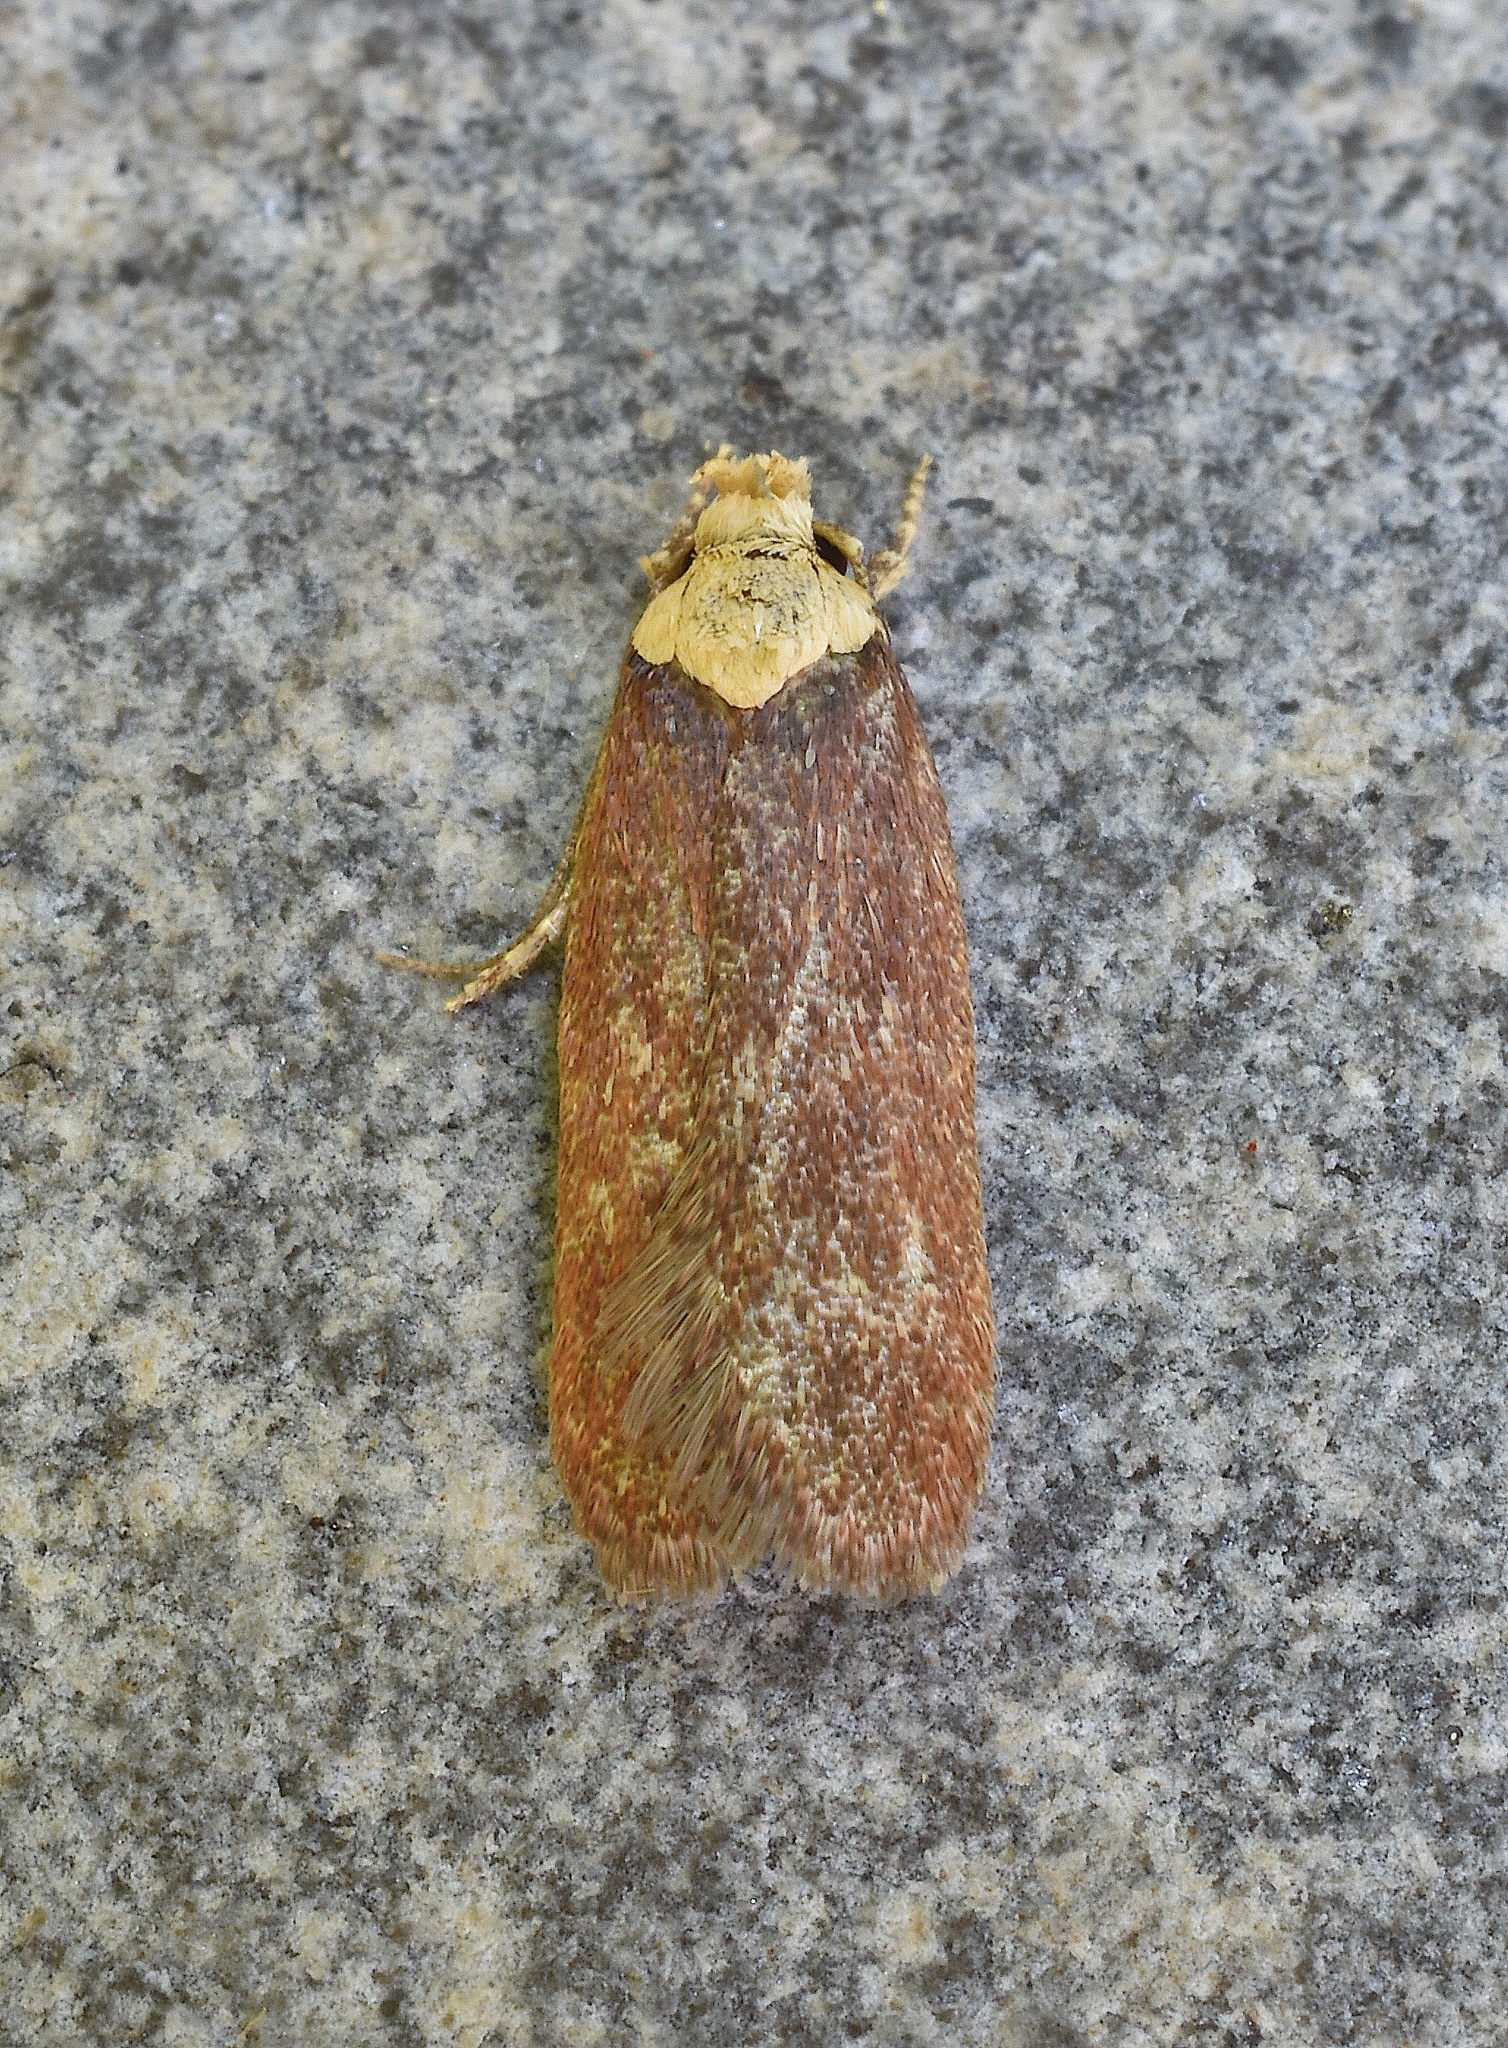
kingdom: Animalia
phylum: Arthropoda
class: Insecta
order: Lepidoptera
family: Depressariidae
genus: Depressaria
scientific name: Depressaria depressana
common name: Lost flat-body
